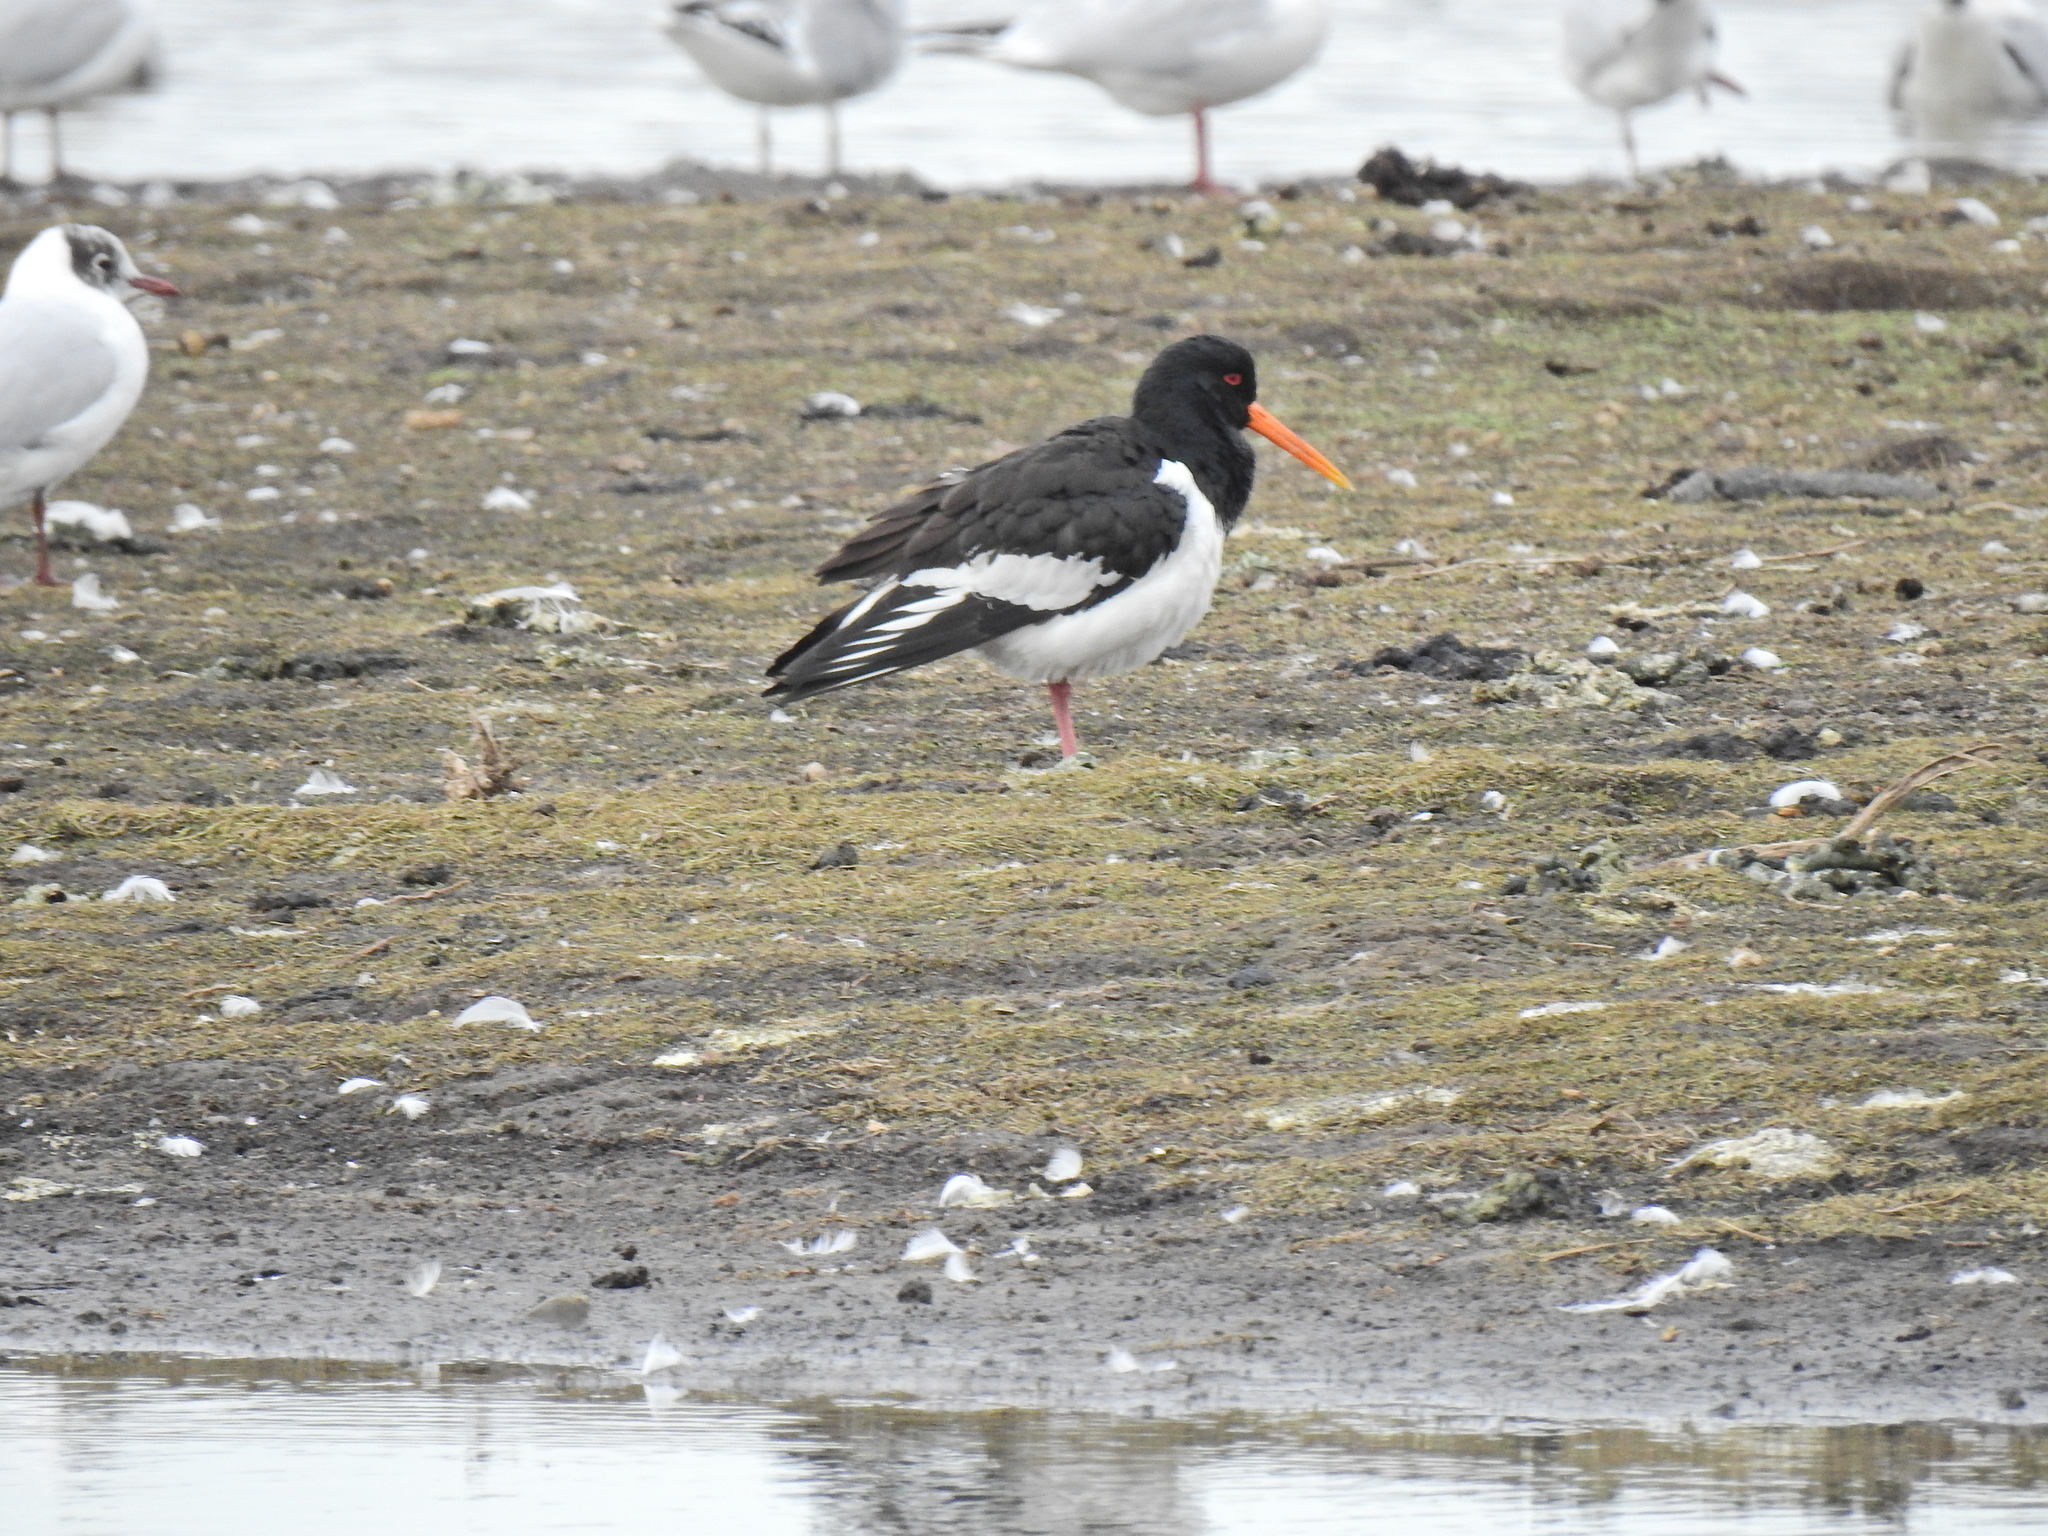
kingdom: Animalia
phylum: Chordata
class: Aves
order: Charadriiformes
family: Haematopodidae
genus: Haematopus
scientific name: Haematopus ostralegus
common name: Eurasian oystercatcher
